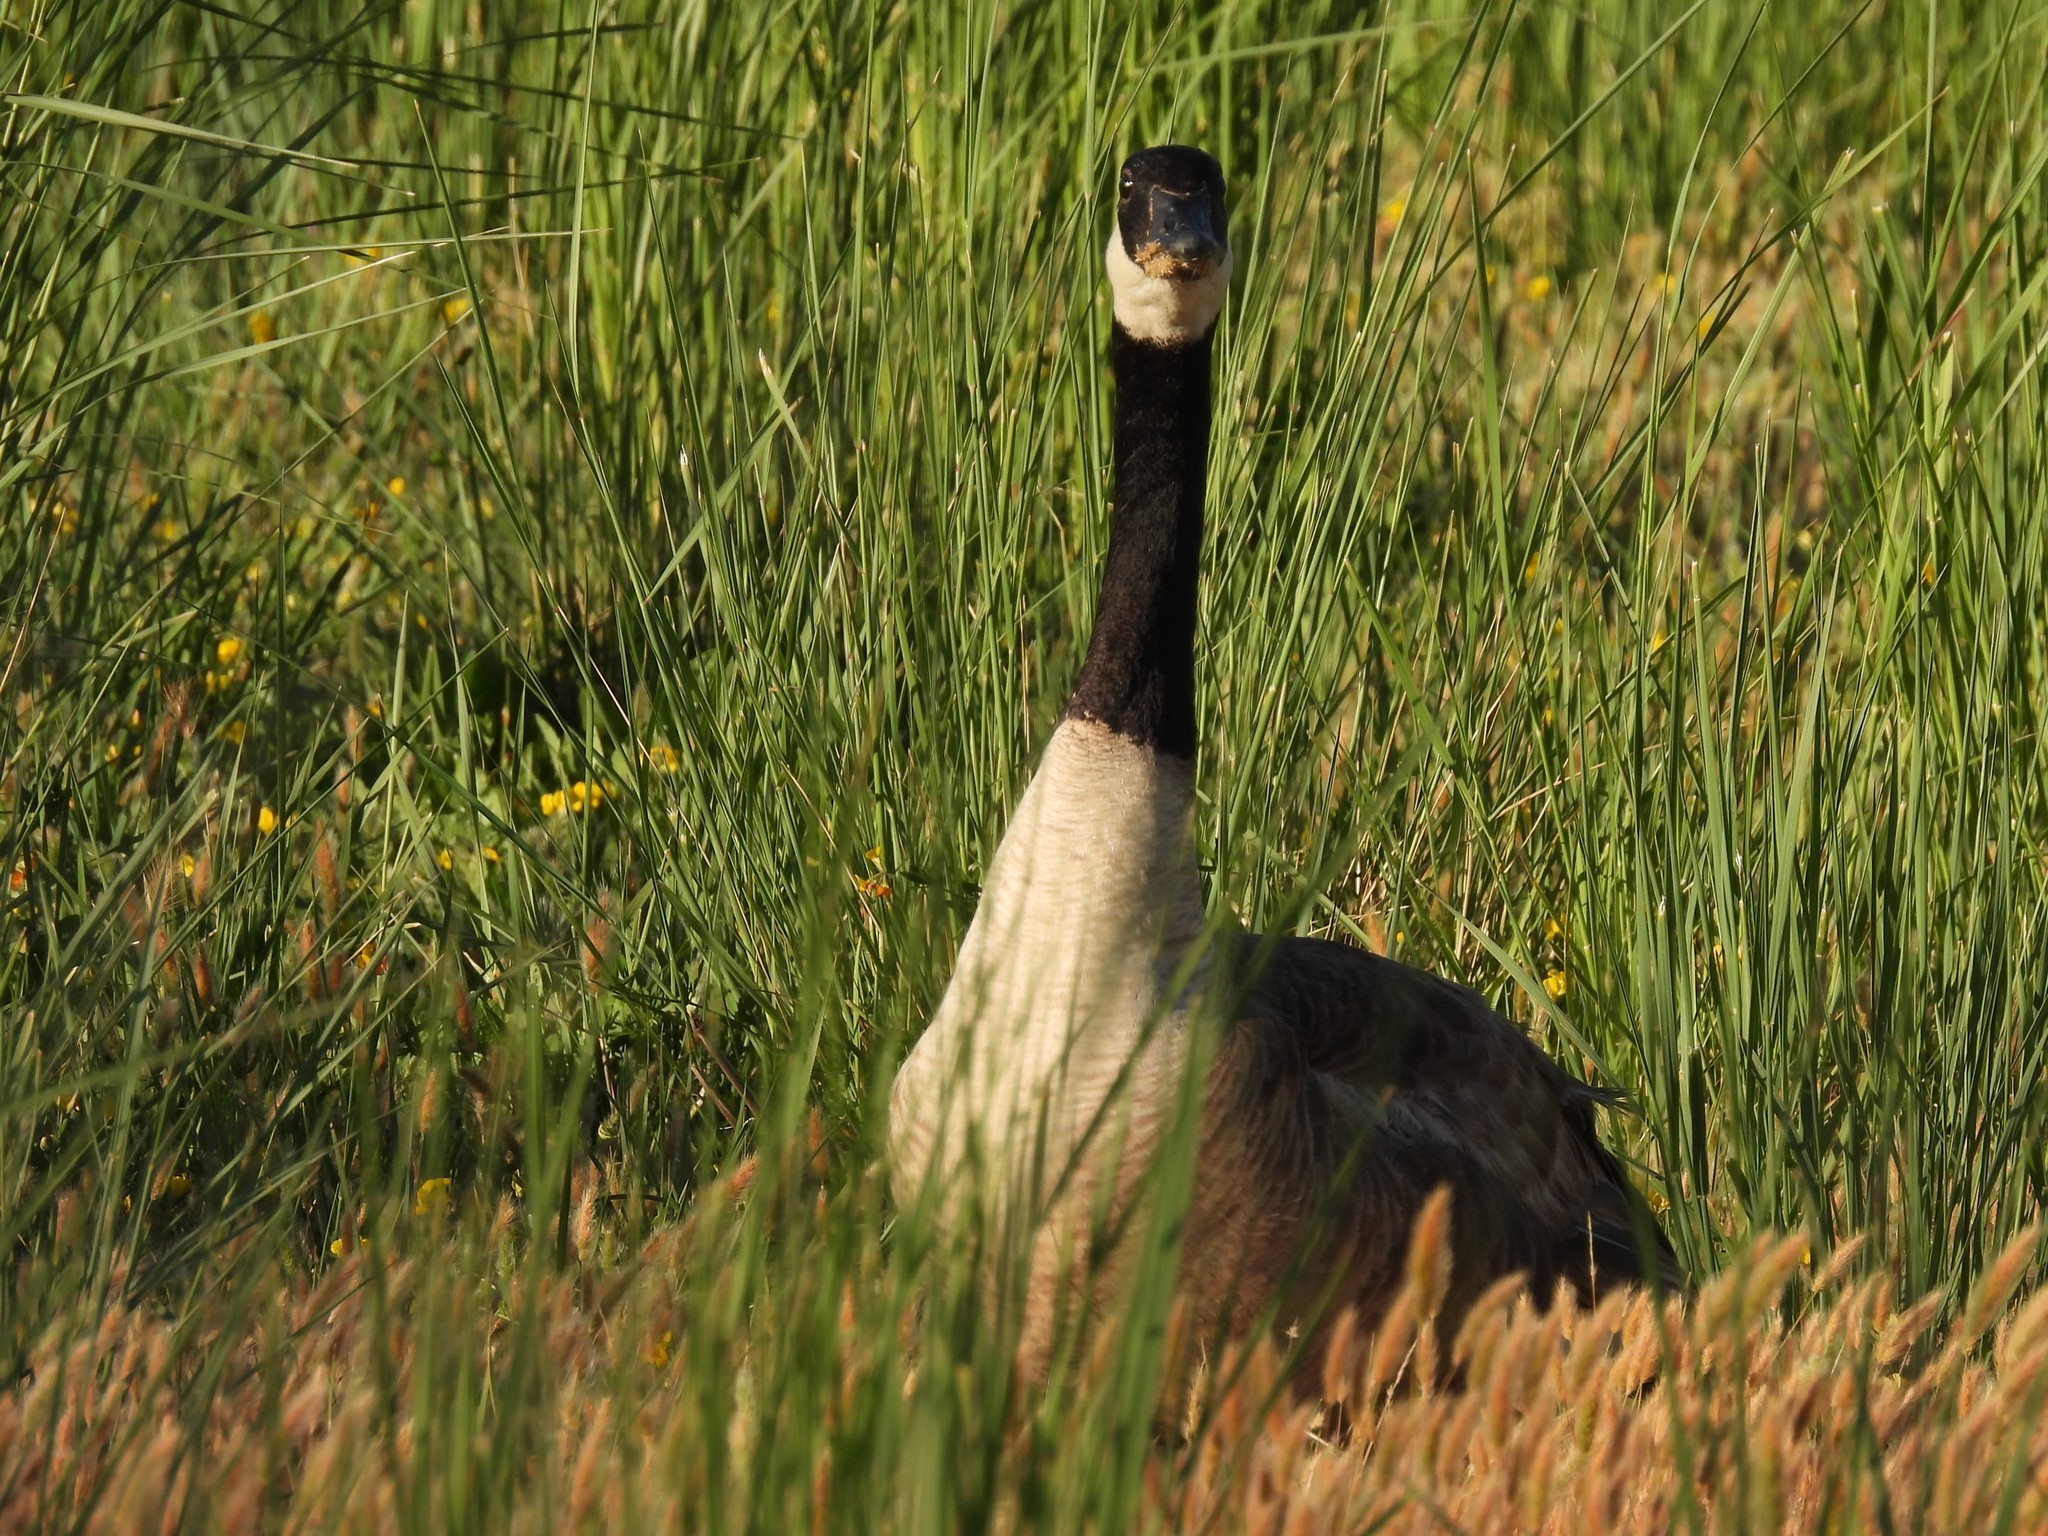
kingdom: Animalia
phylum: Chordata
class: Aves
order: Anseriformes
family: Anatidae
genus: Branta
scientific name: Branta canadensis
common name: Canada goose
